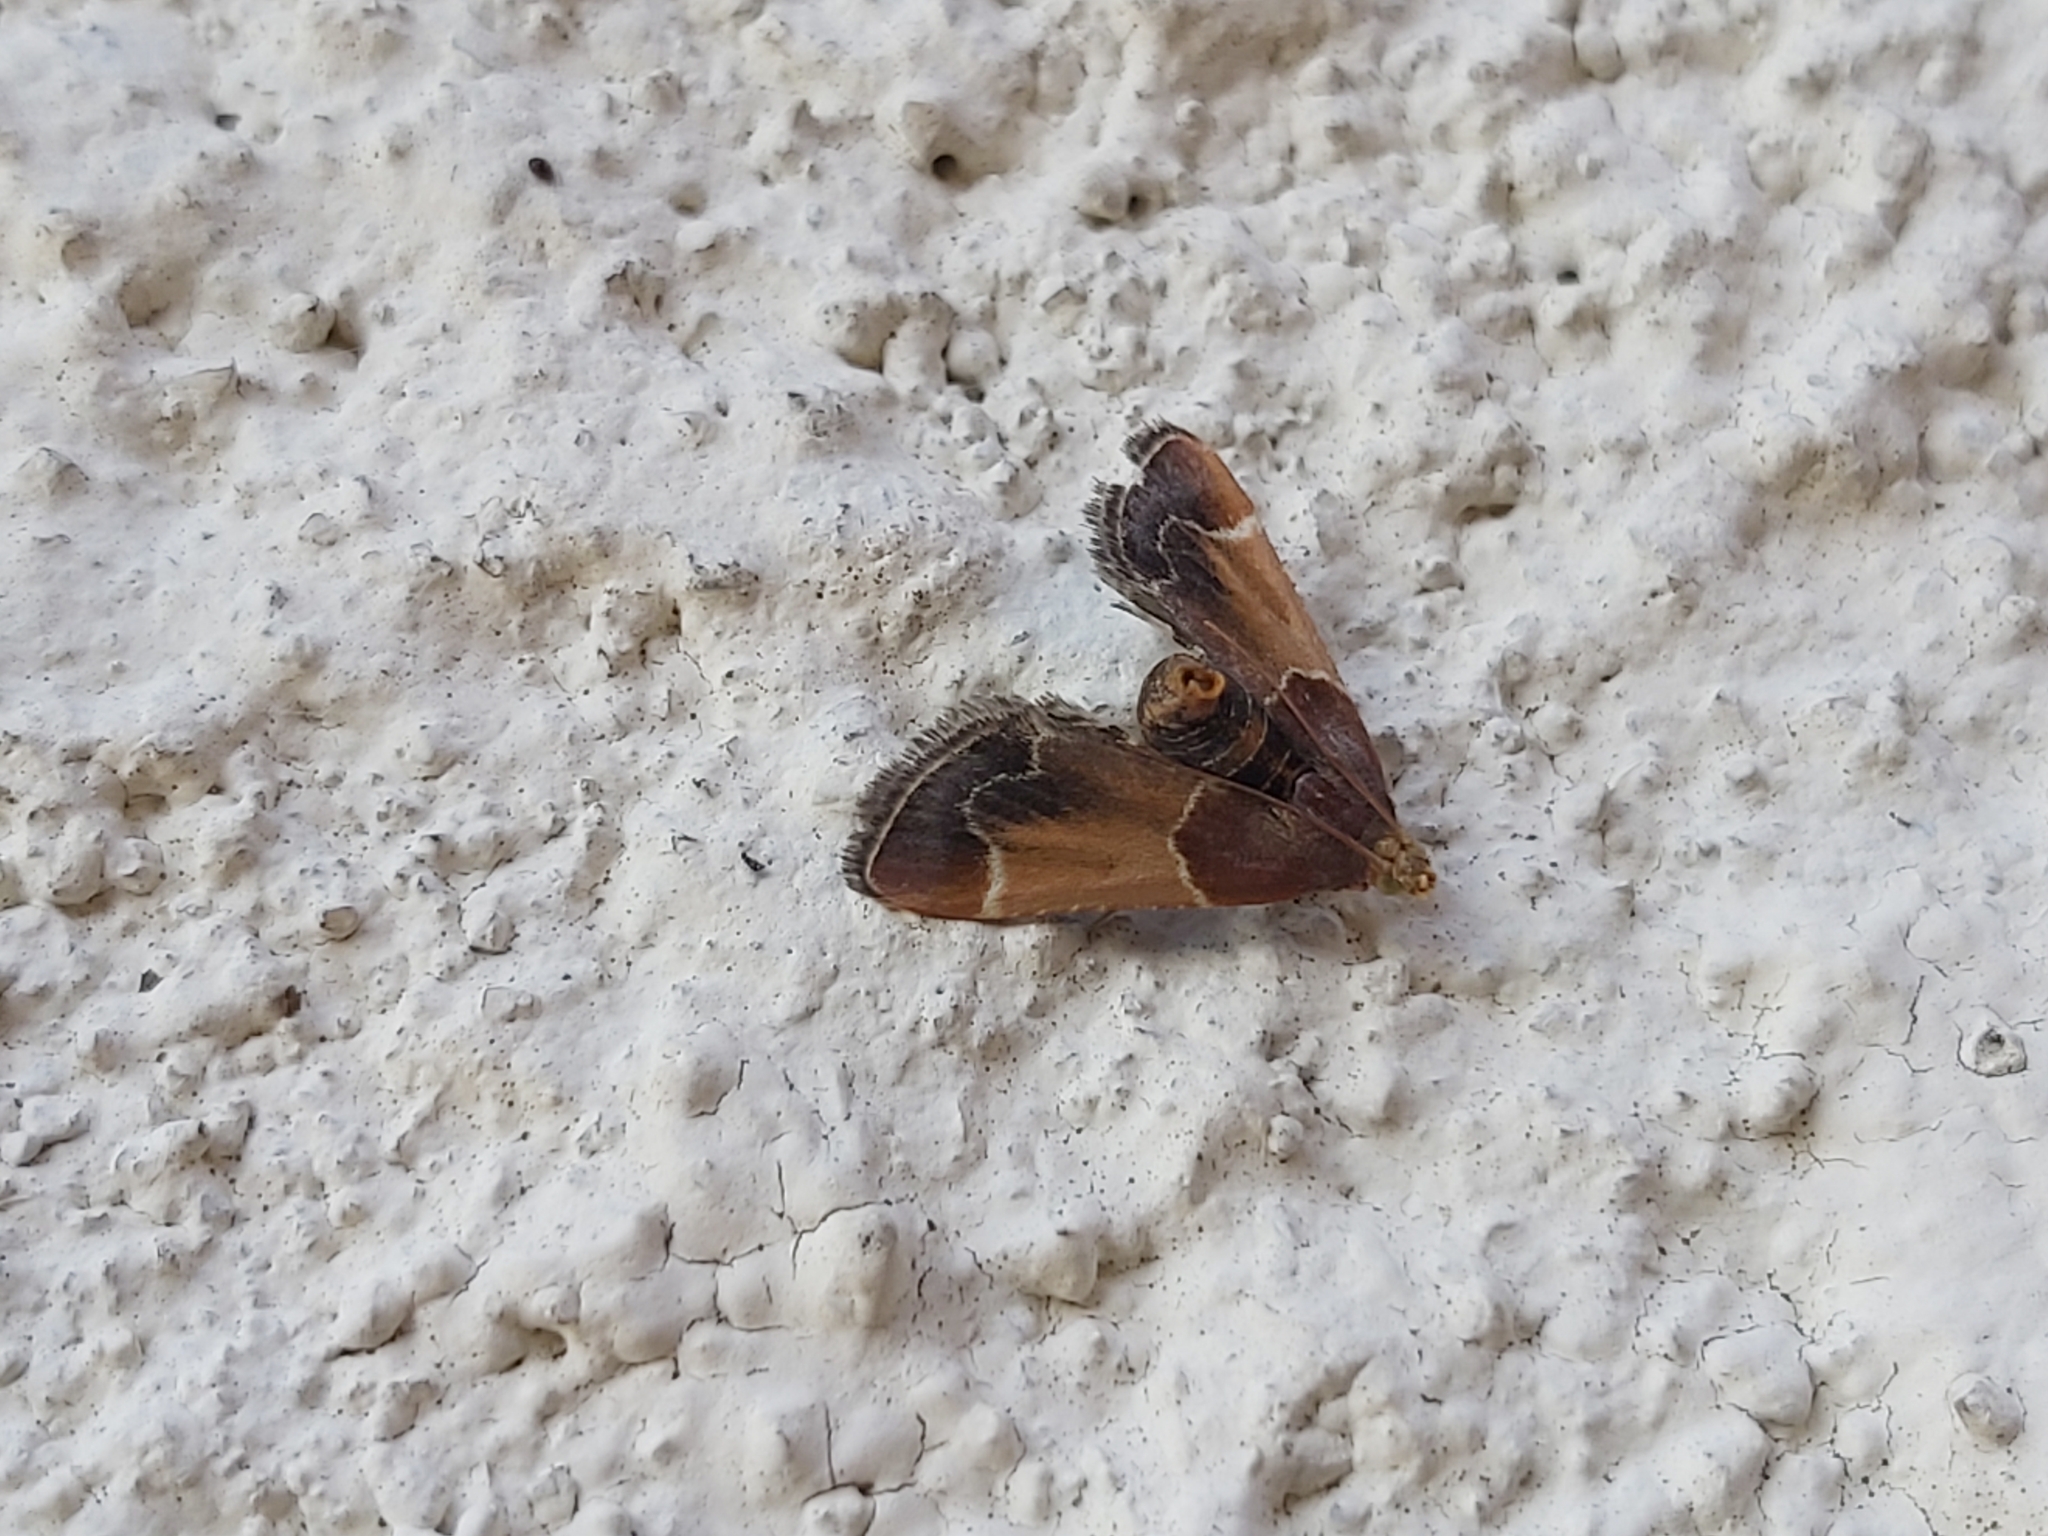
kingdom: Animalia
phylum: Arthropoda
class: Insecta
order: Lepidoptera
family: Pyralidae
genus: Pyralis
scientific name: Pyralis farinalis
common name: Meal moth
